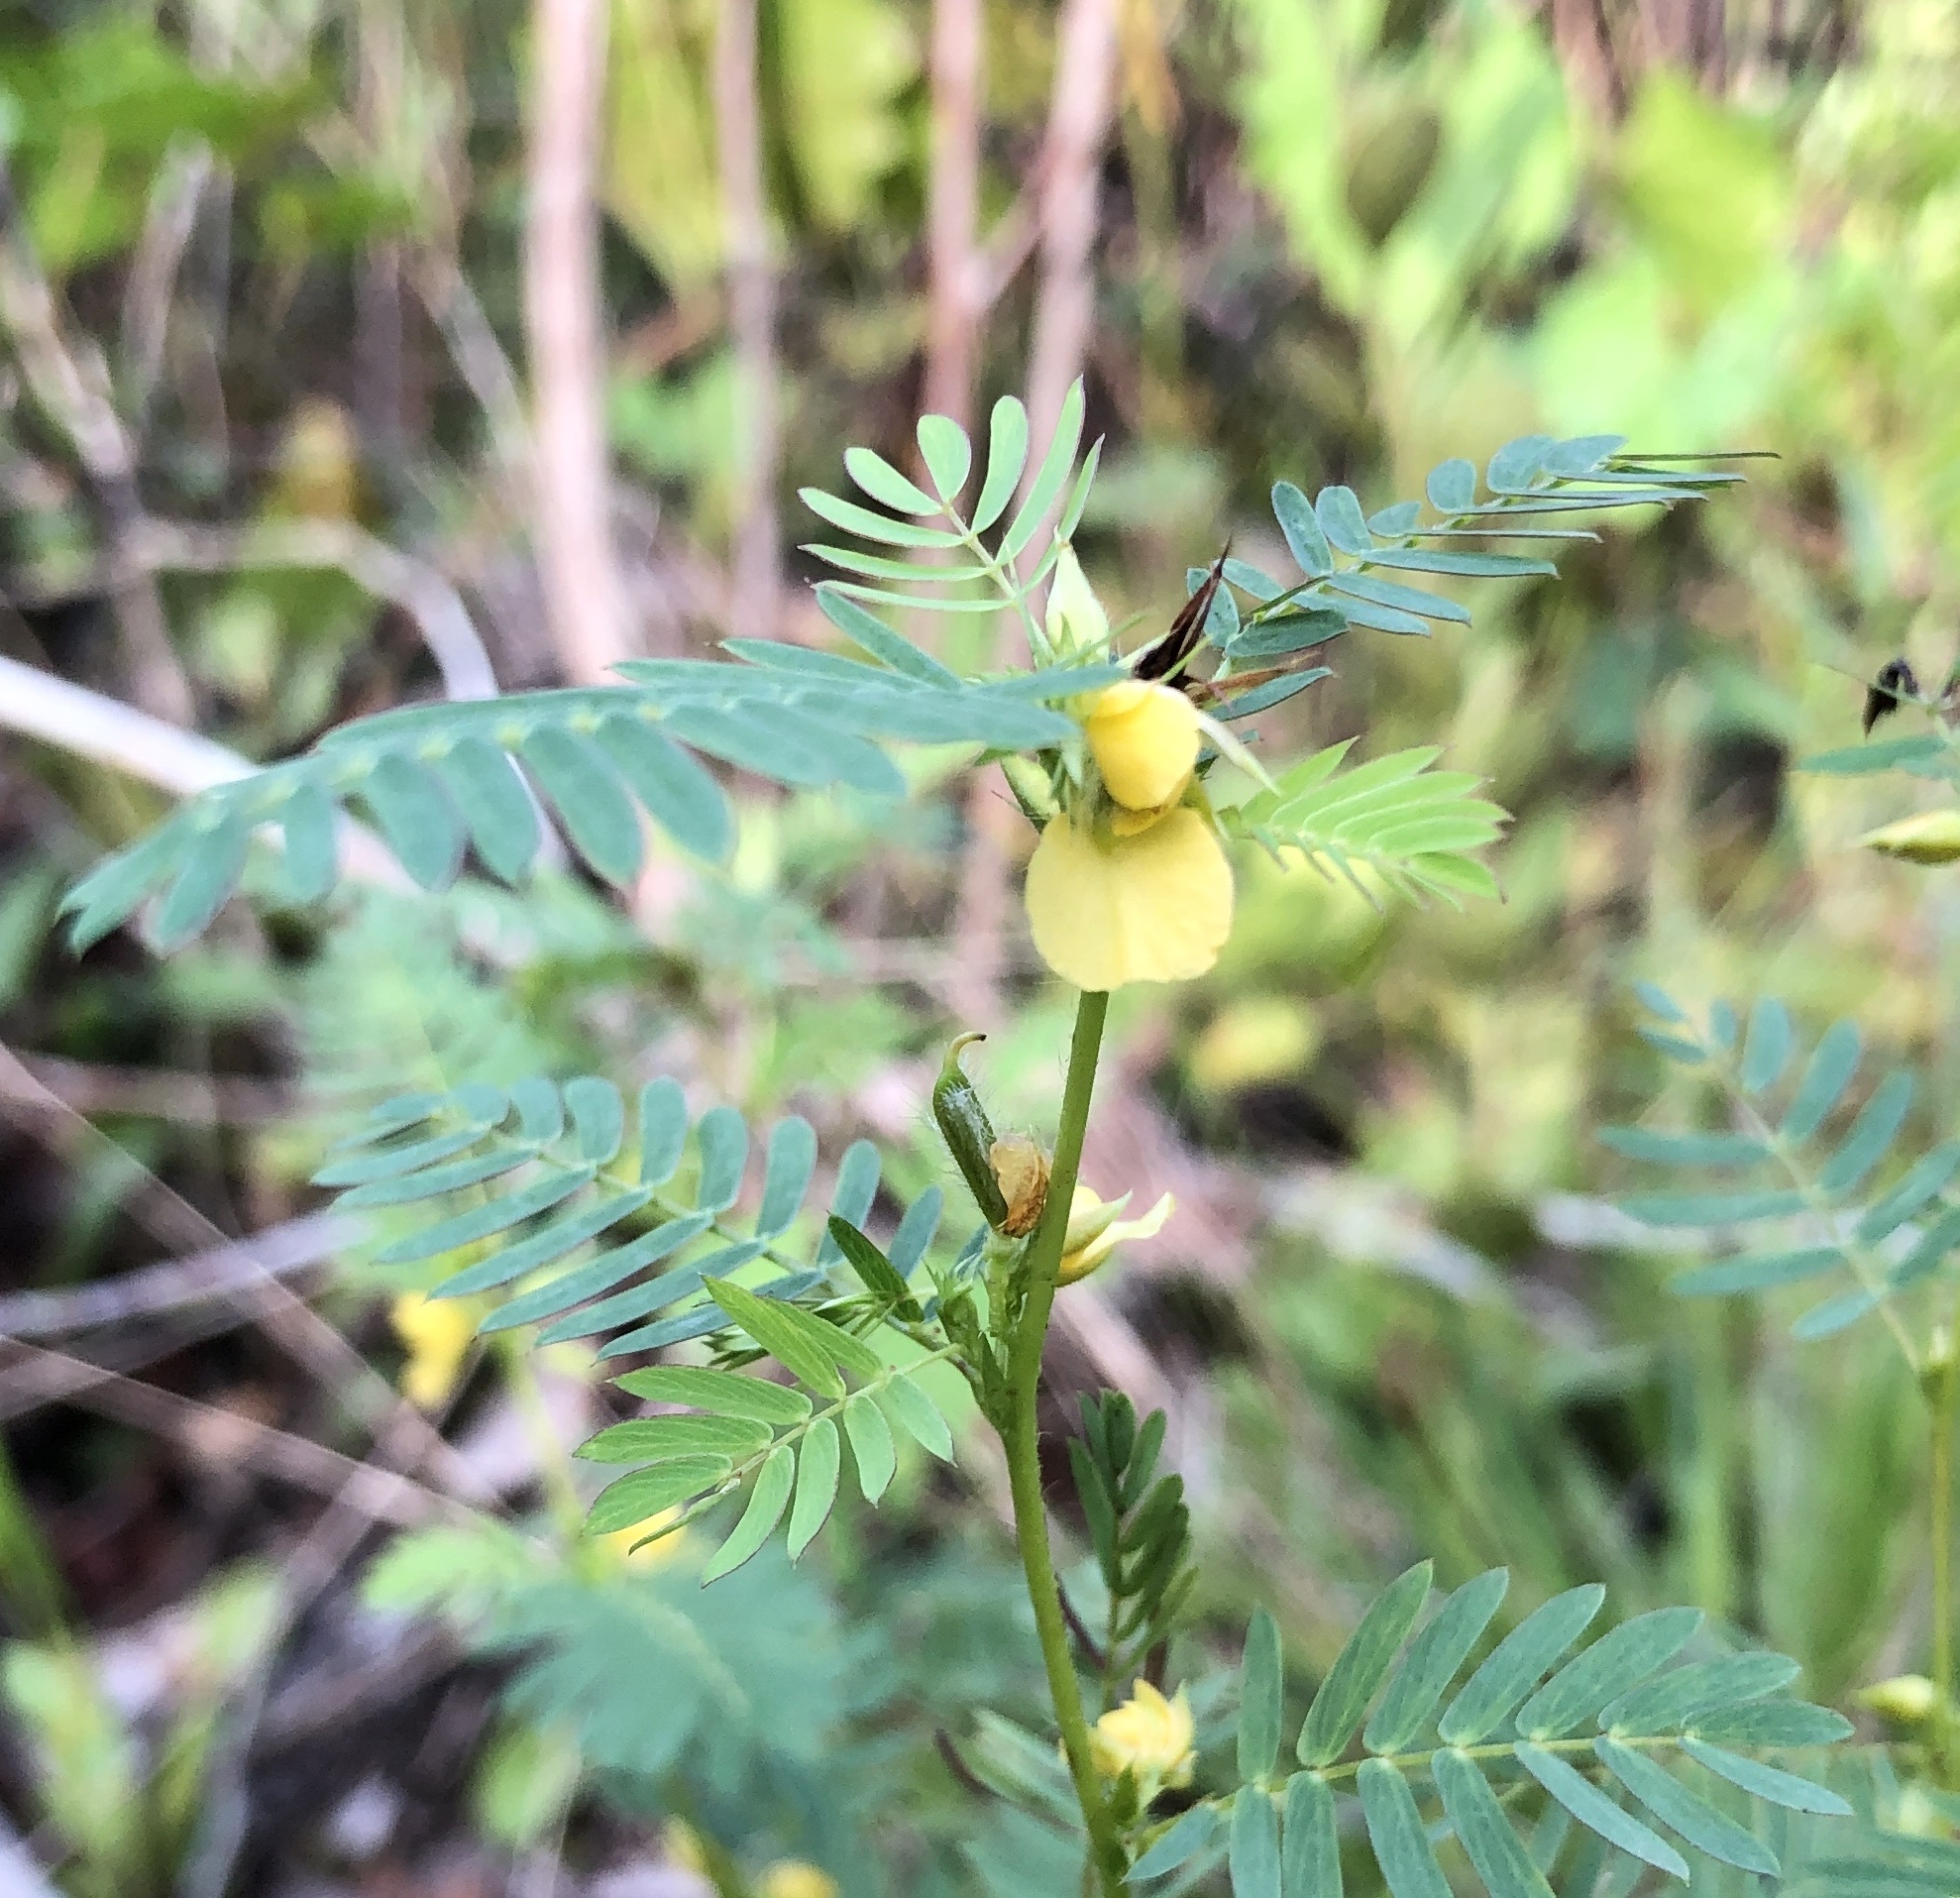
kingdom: Plantae
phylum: Tracheophyta
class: Magnoliopsida
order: Fabales
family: Fabaceae
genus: Chamaecrista
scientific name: Chamaecrista nictitans
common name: Sensitive cassia
